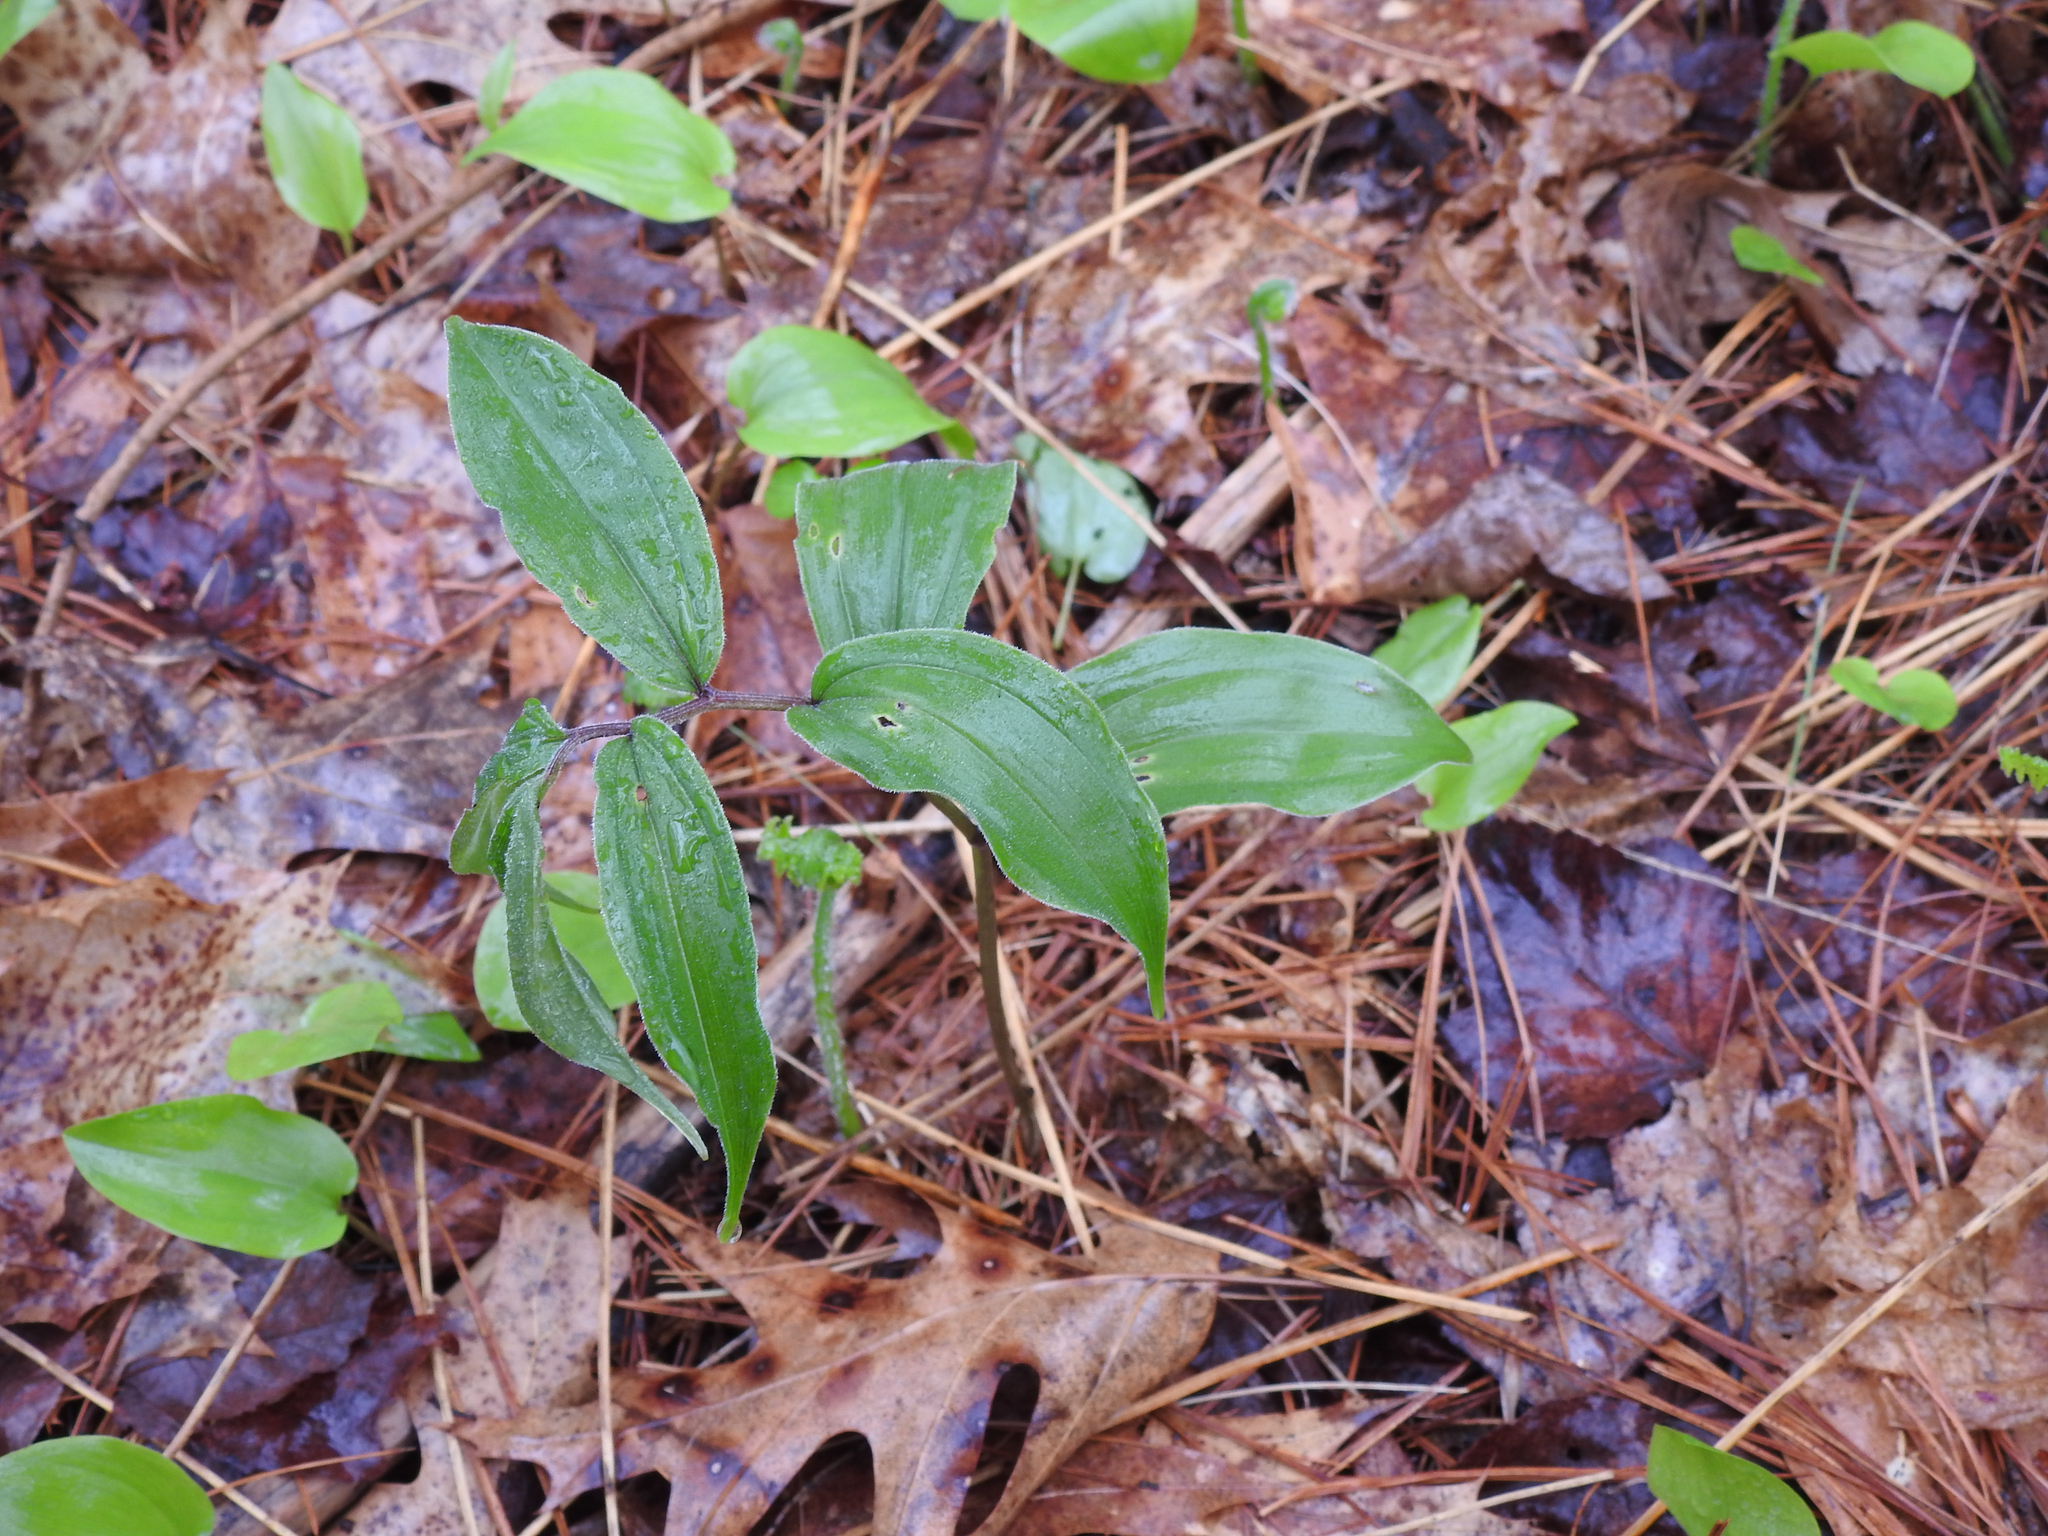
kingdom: Plantae
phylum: Tracheophyta
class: Liliopsida
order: Asparagales
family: Asparagaceae
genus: Maianthemum
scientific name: Maianthemum racemosum
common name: False spikenard
